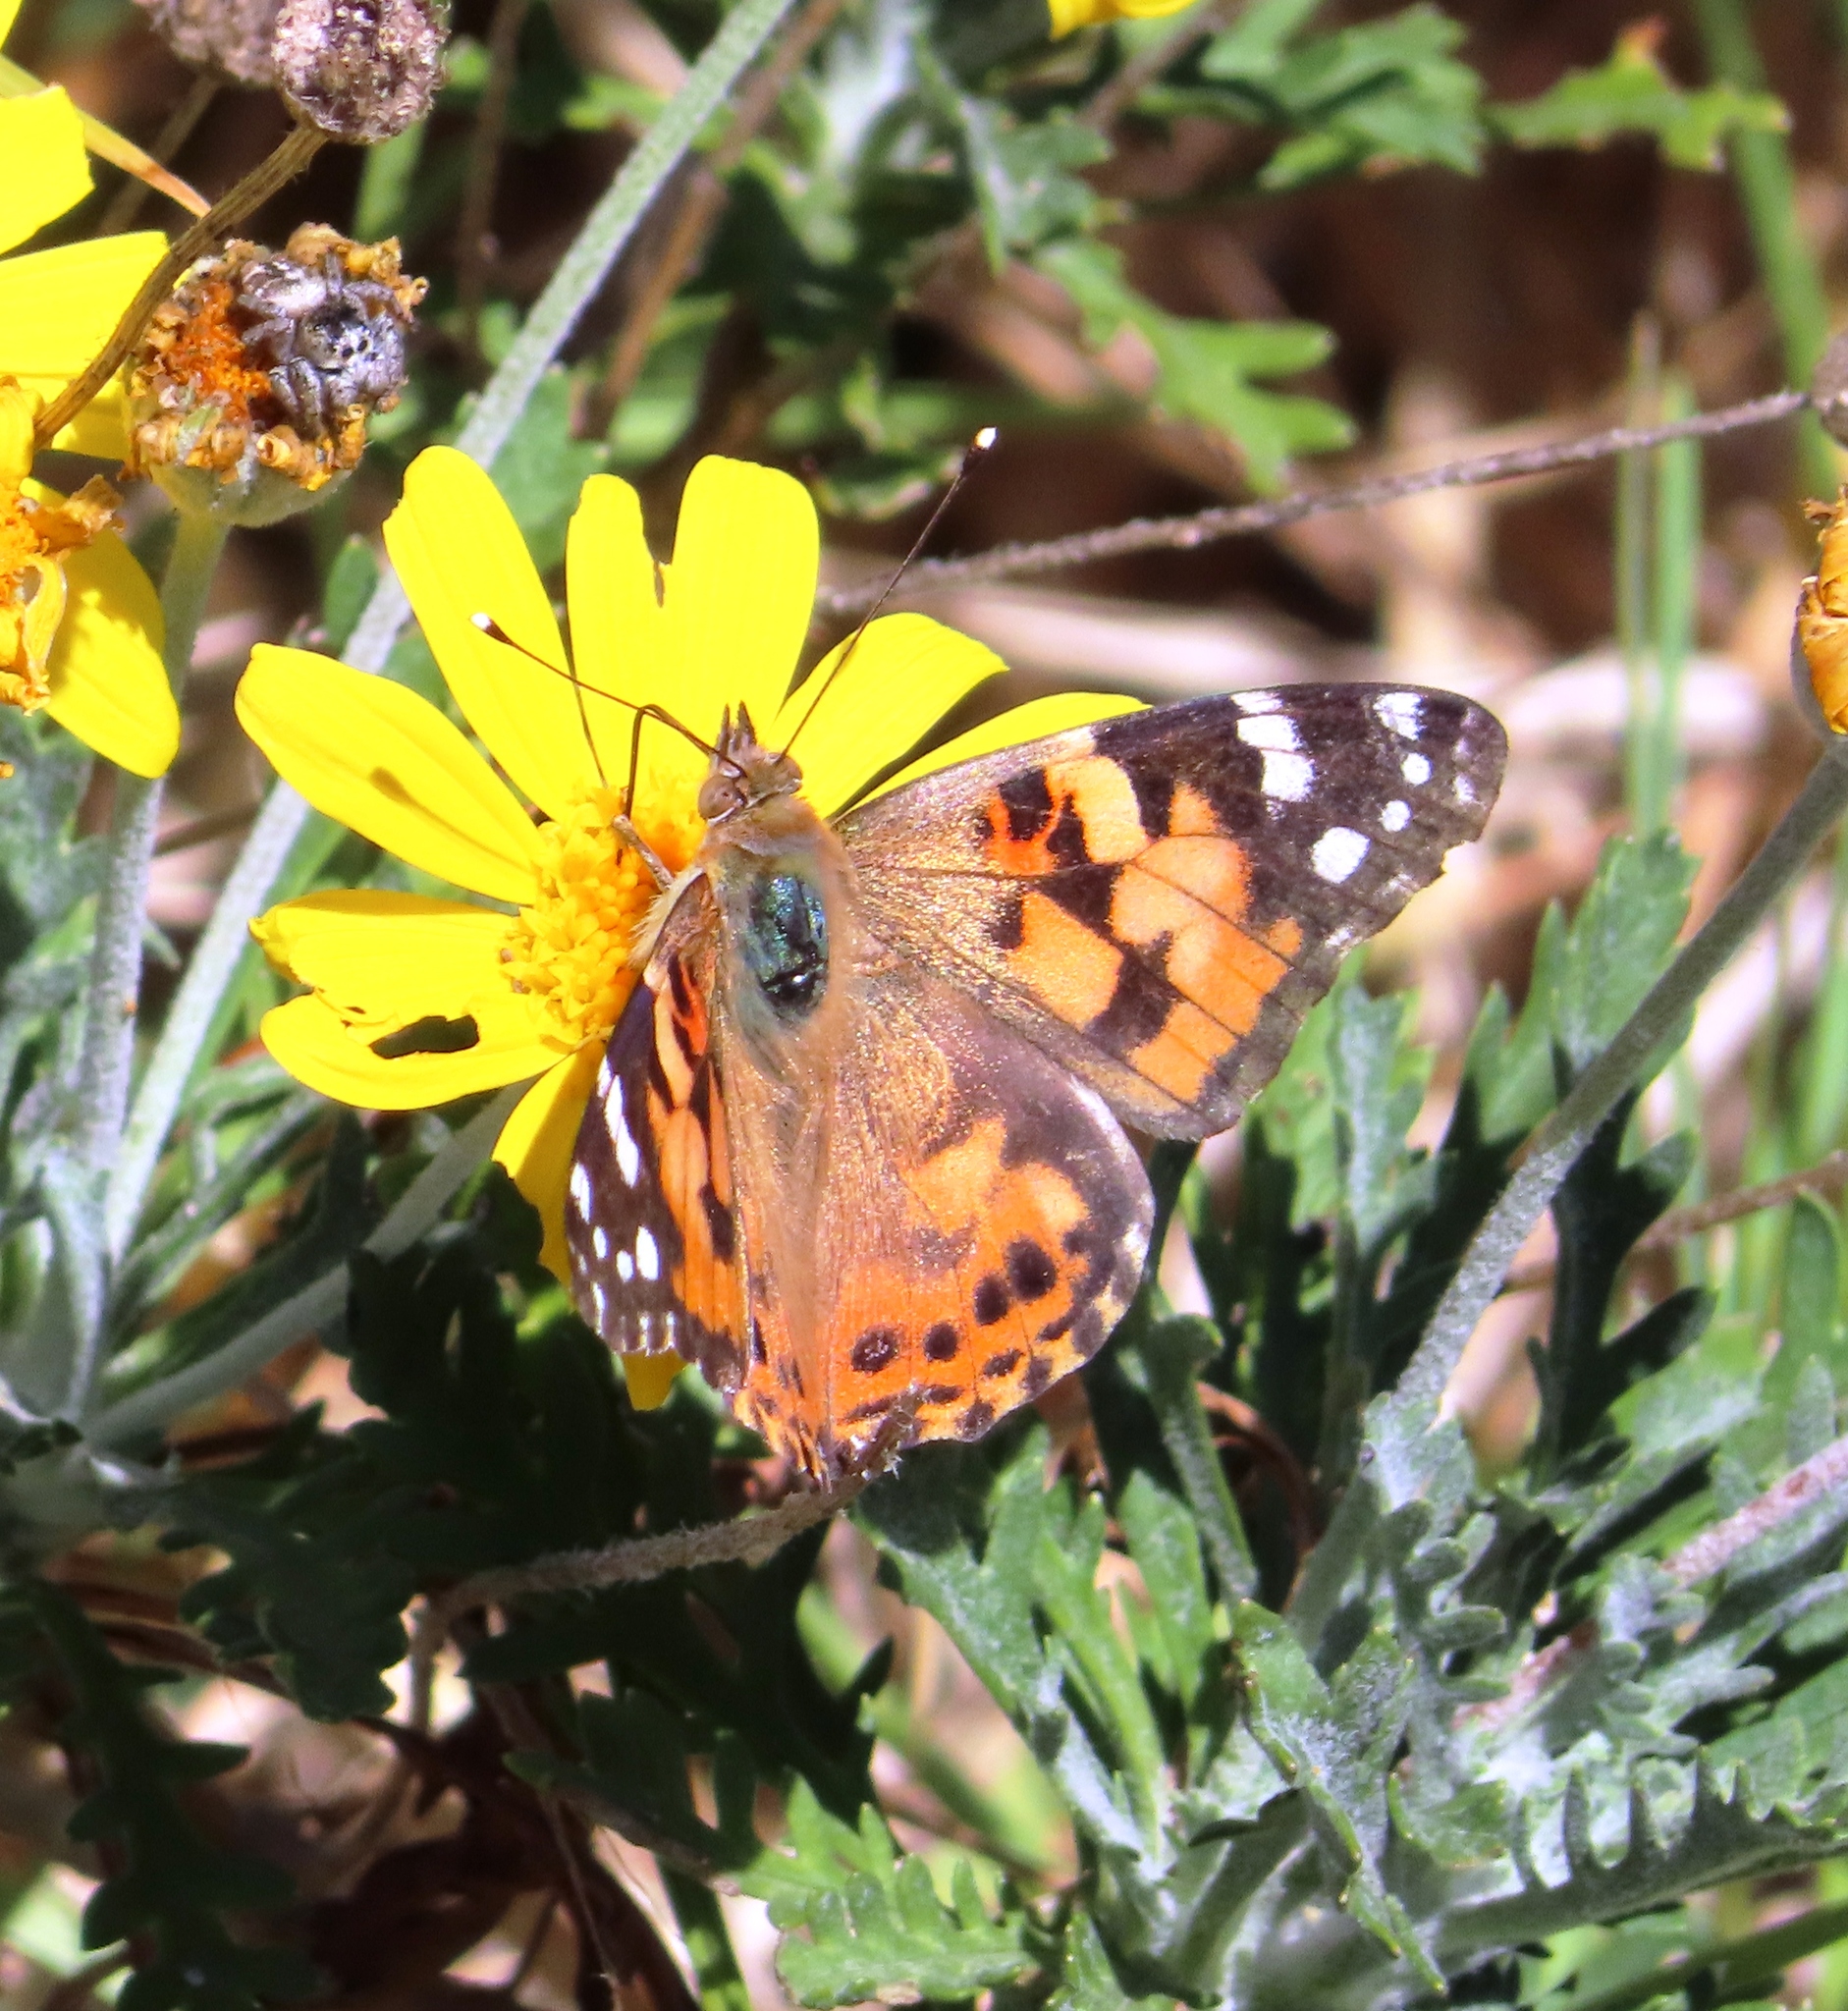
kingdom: Animalia
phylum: Arthropoda
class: Insecta
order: Lepidoptera
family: Nymphalidae
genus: Vanessa
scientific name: Vanessa cardui
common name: Painted lady
